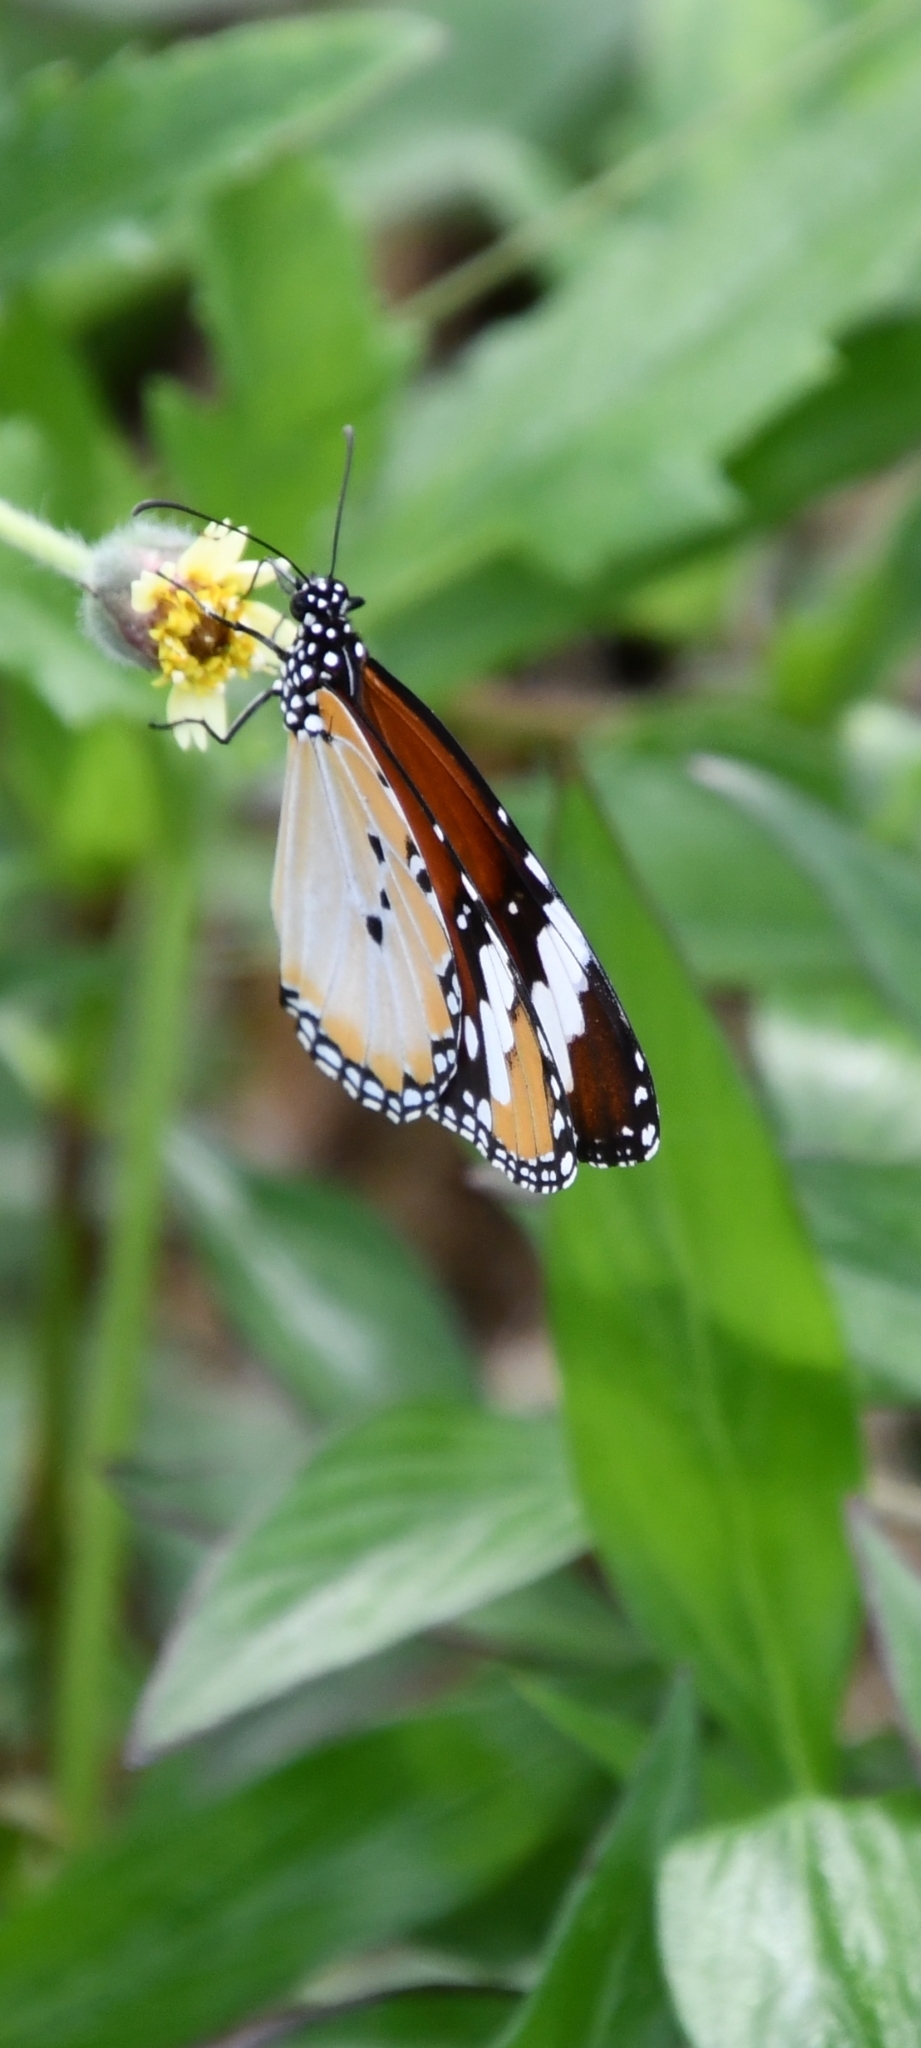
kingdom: Animalia
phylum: Arthropoda
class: Insecta
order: Lepidoptera
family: Nymphalidae
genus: Danaus
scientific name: Danaus chrysippus
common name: Plain tiger
